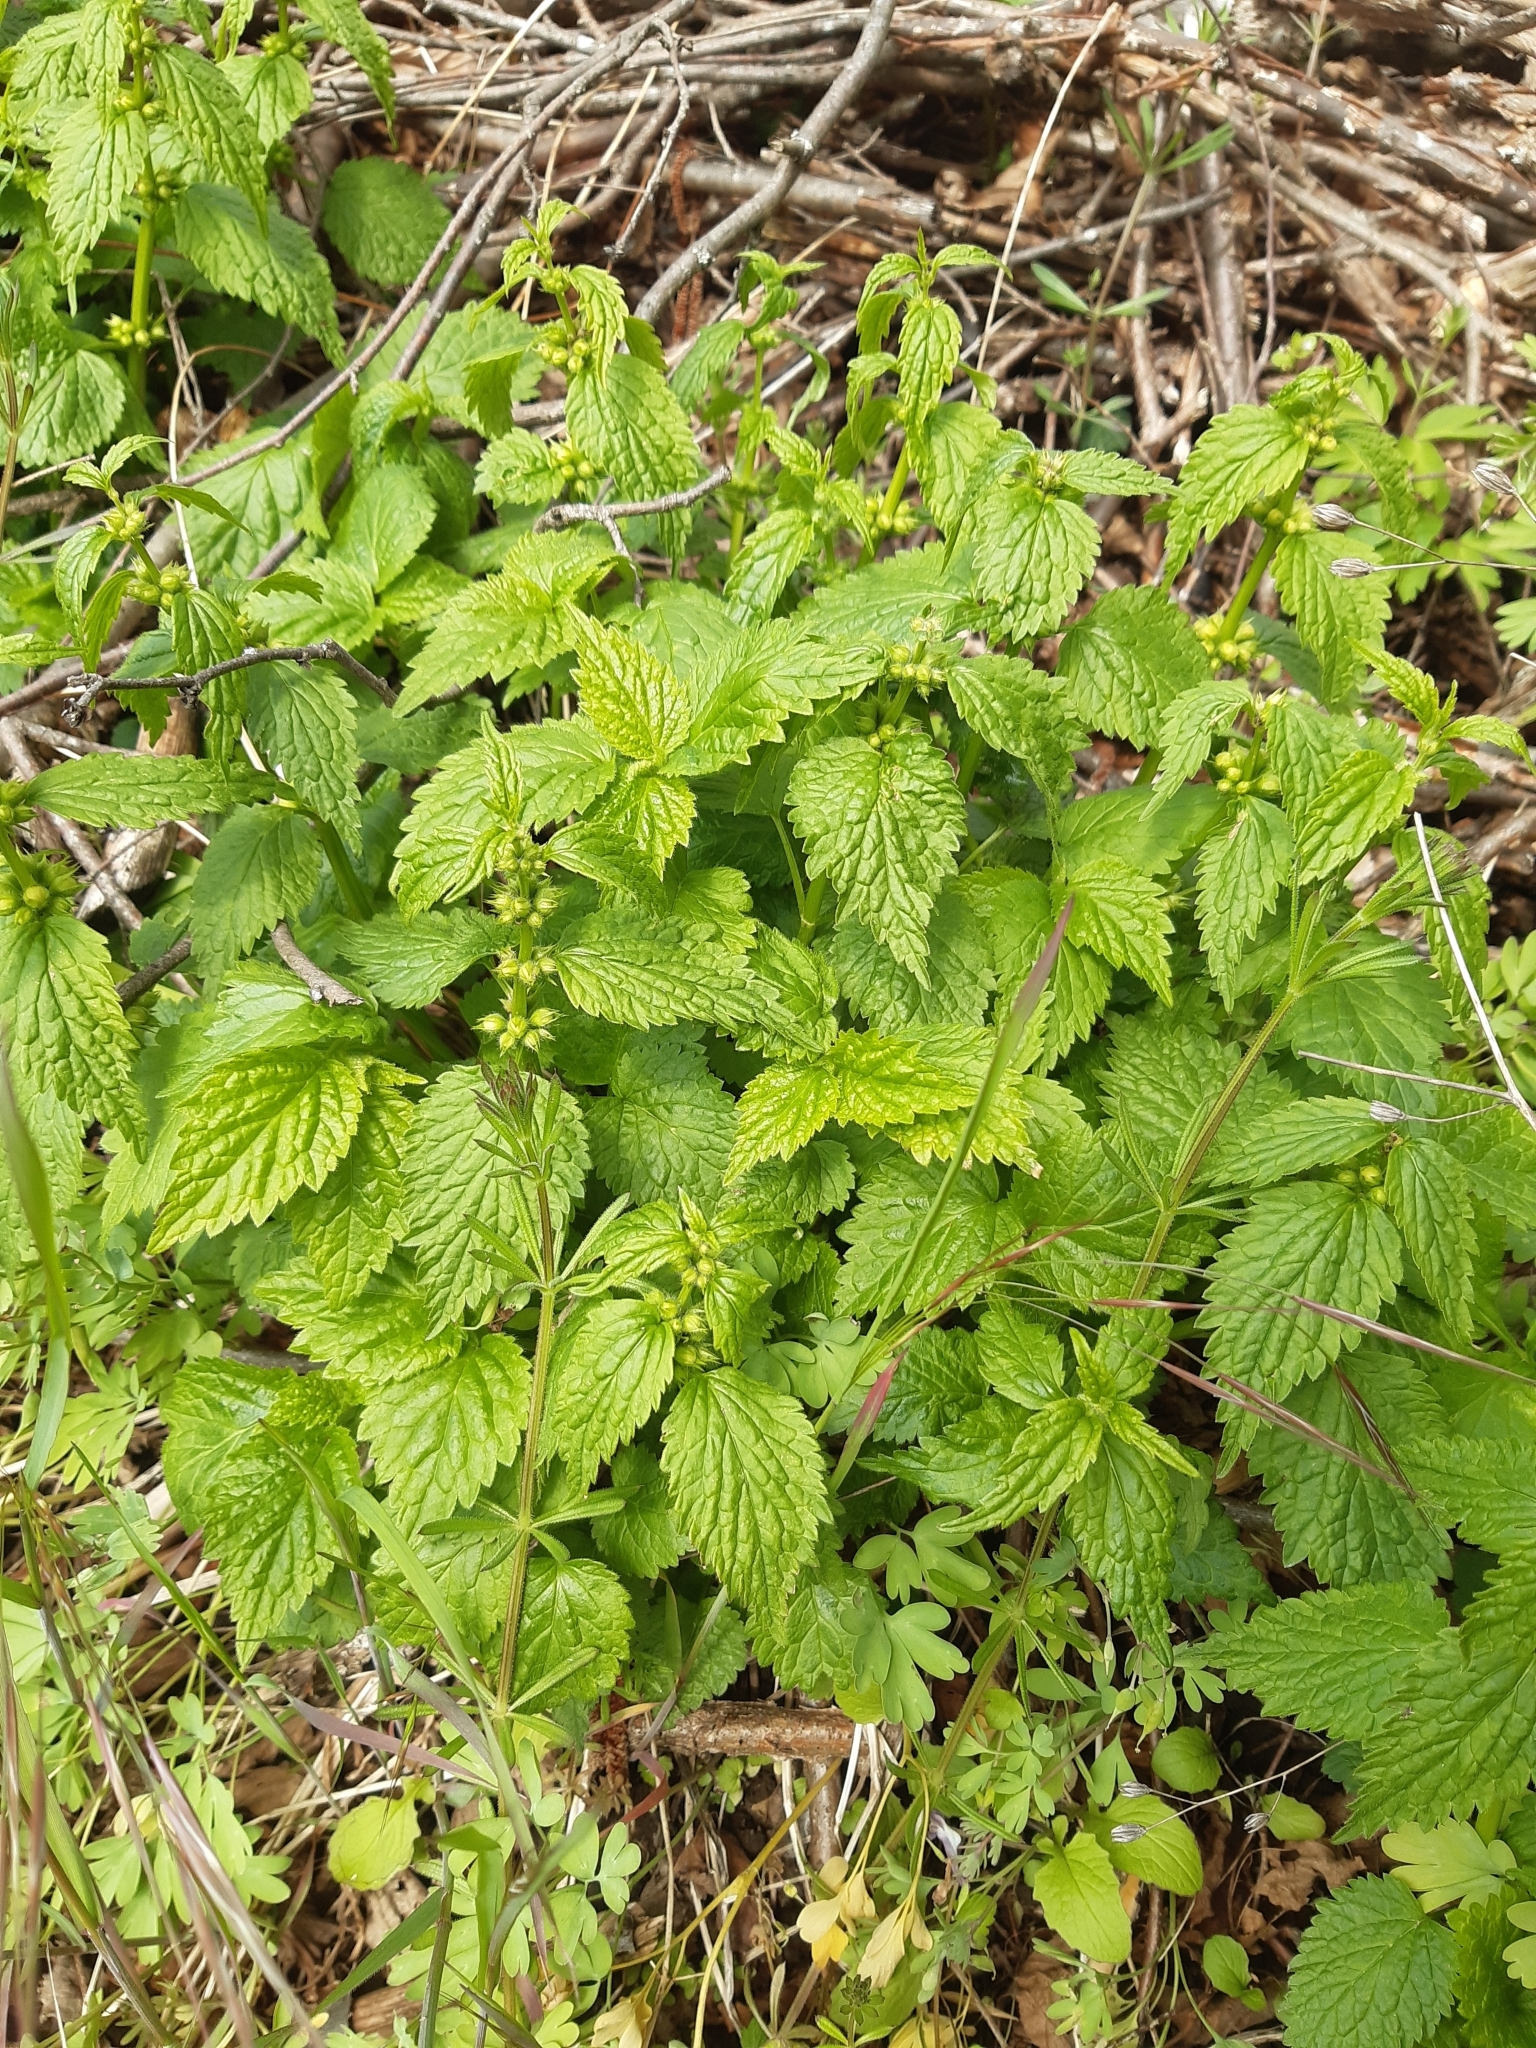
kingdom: Plantae
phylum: Tracheophyta
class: Magnoliopsida
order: Lamiales
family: Lamiaceae
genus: Lamium
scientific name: Lamium galeobdolon
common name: Yellow archangel
